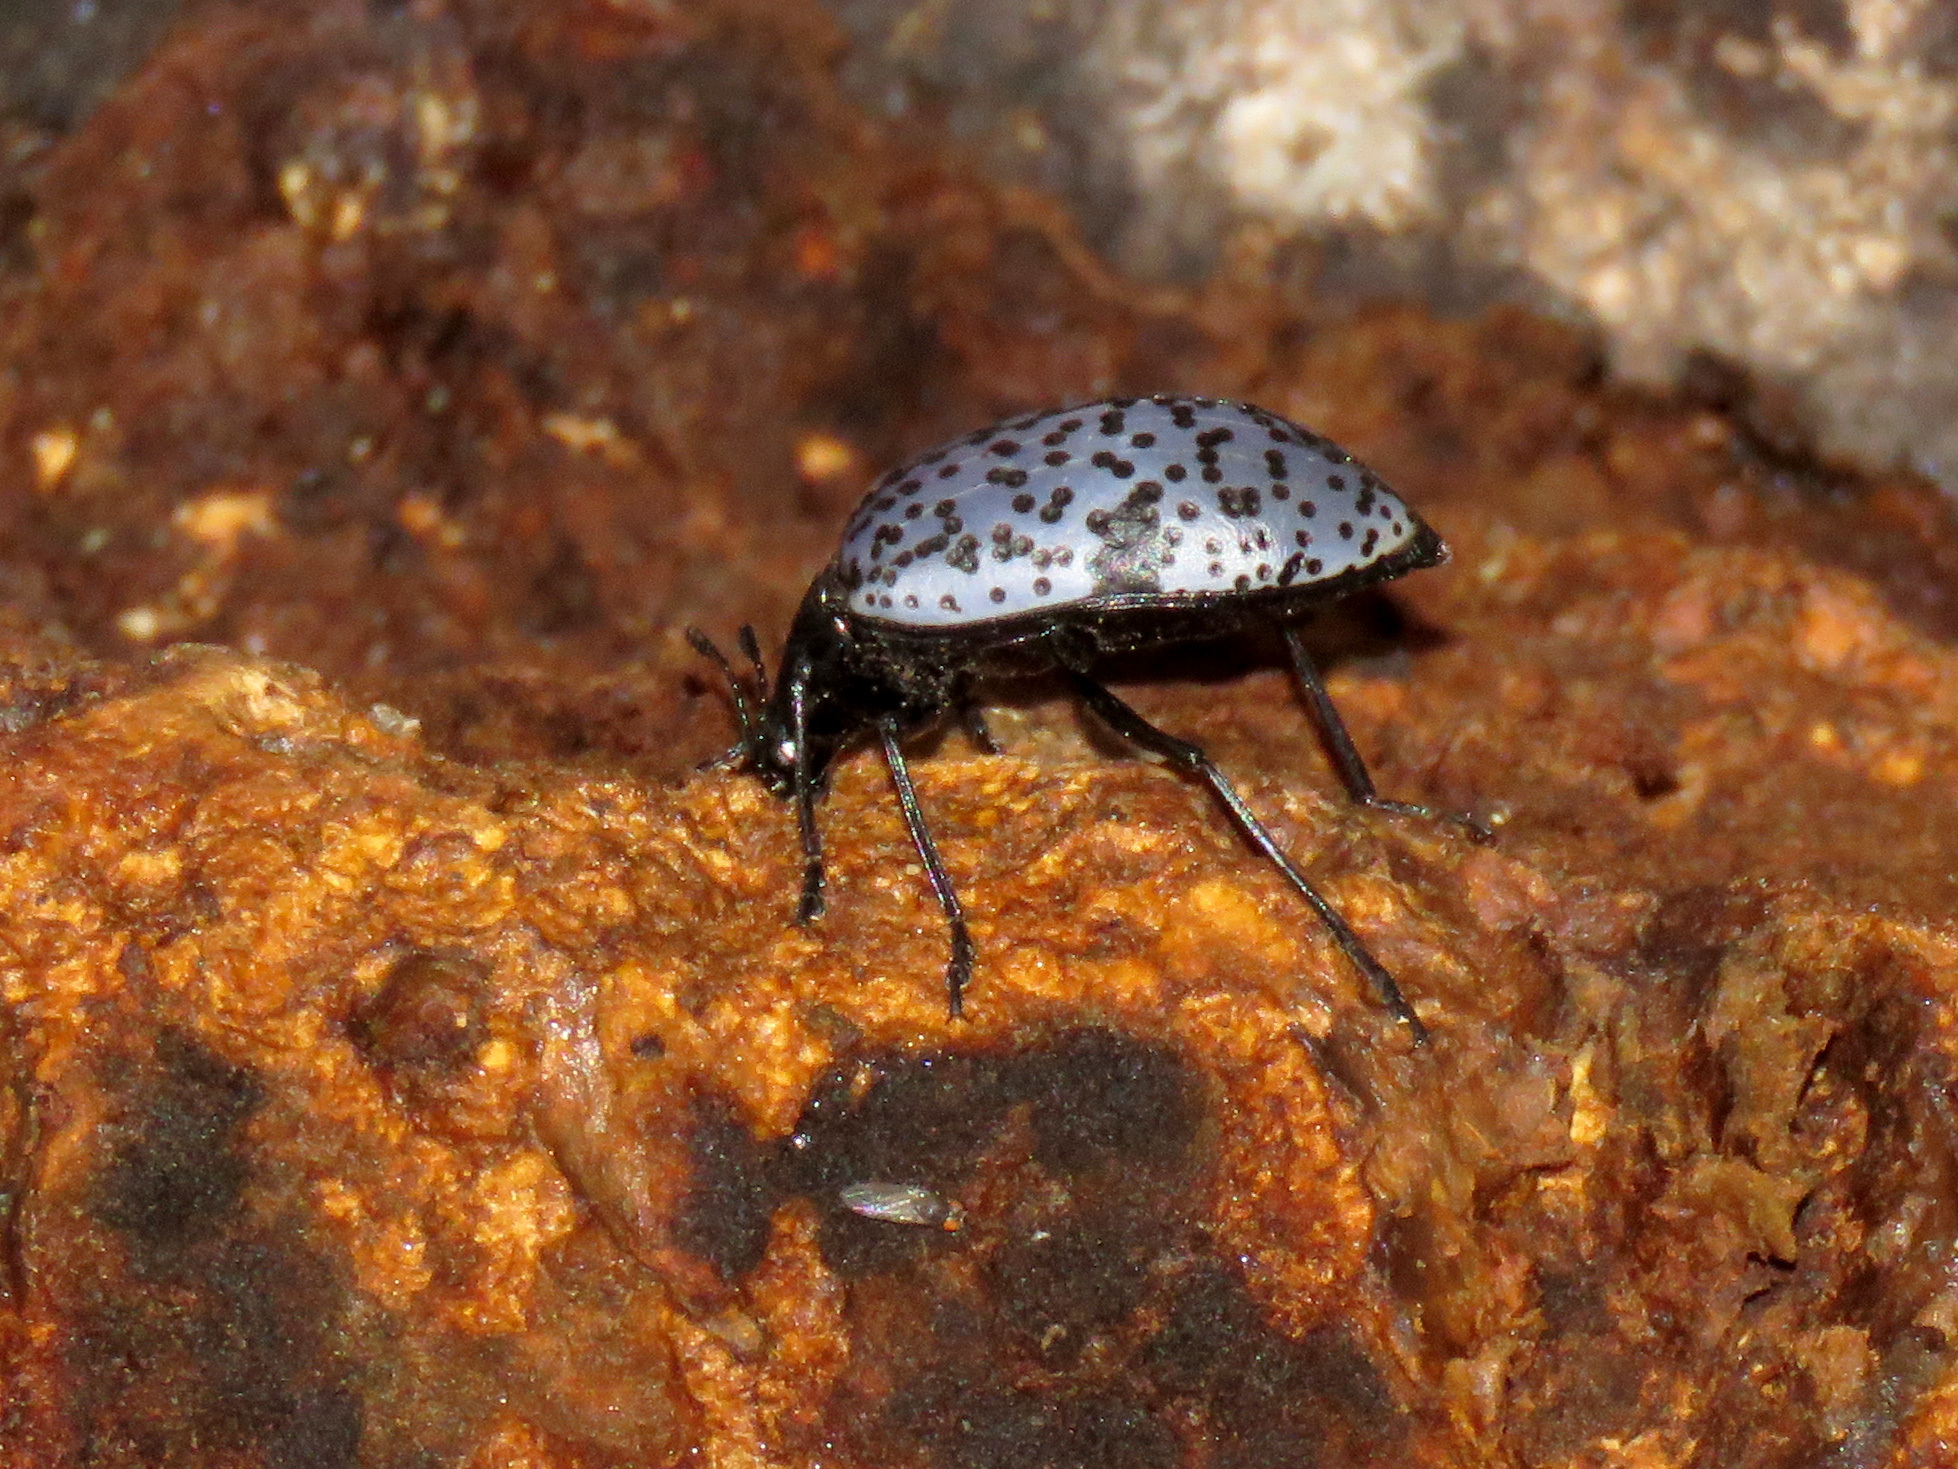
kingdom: Animalia
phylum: Arthropoda
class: Insecta
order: Coleoptera
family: Erotylidae
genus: Gibbifer
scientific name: Gibbifer californicus
